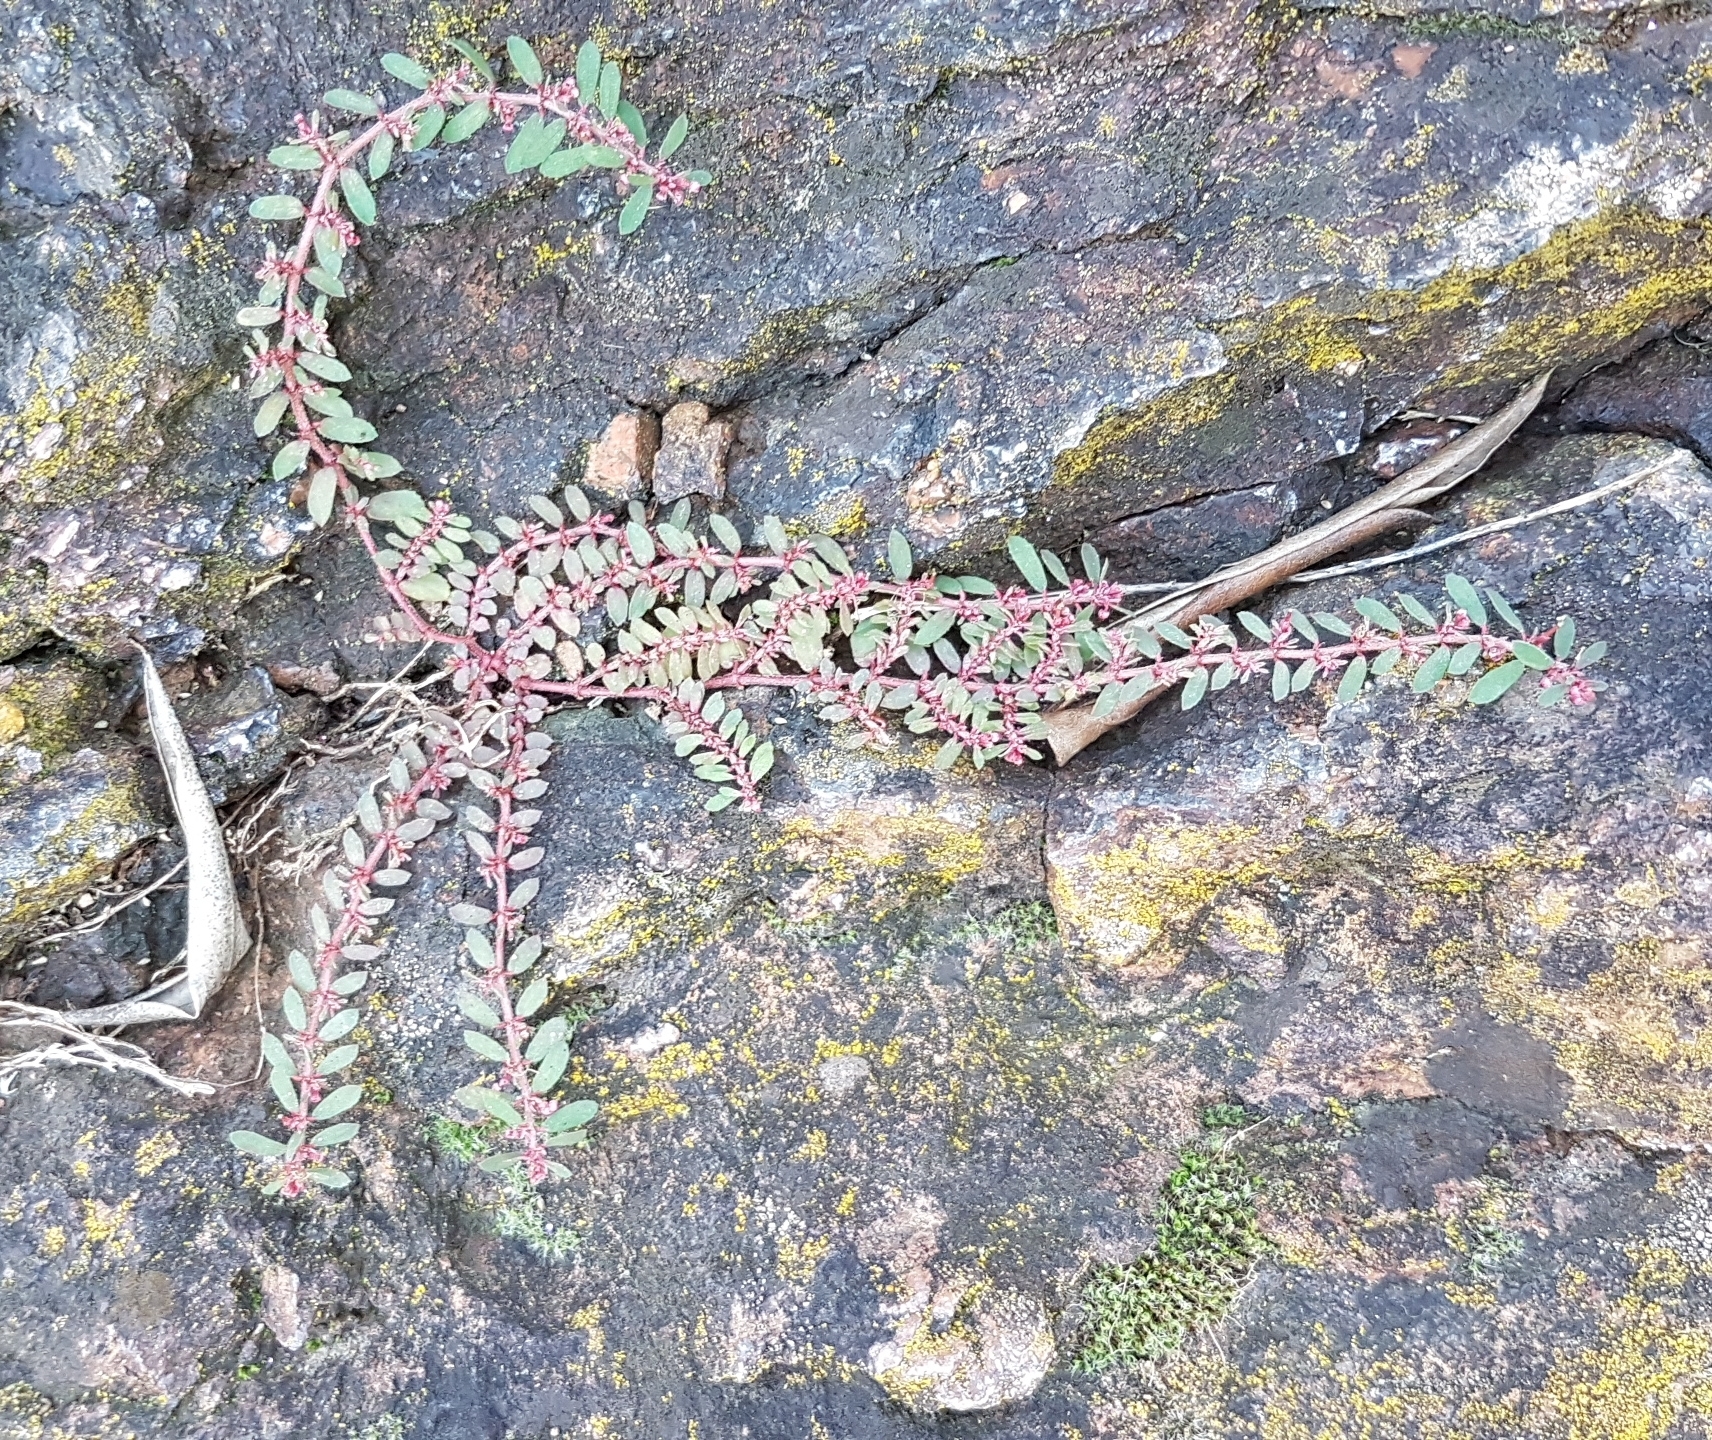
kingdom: Plantae
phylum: Tracheophyta
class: Magnoliopsida
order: Malpighiales
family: Euphorbiaceae
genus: Euphorbia
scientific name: Euphorbia maculata
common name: Spotted spurge
